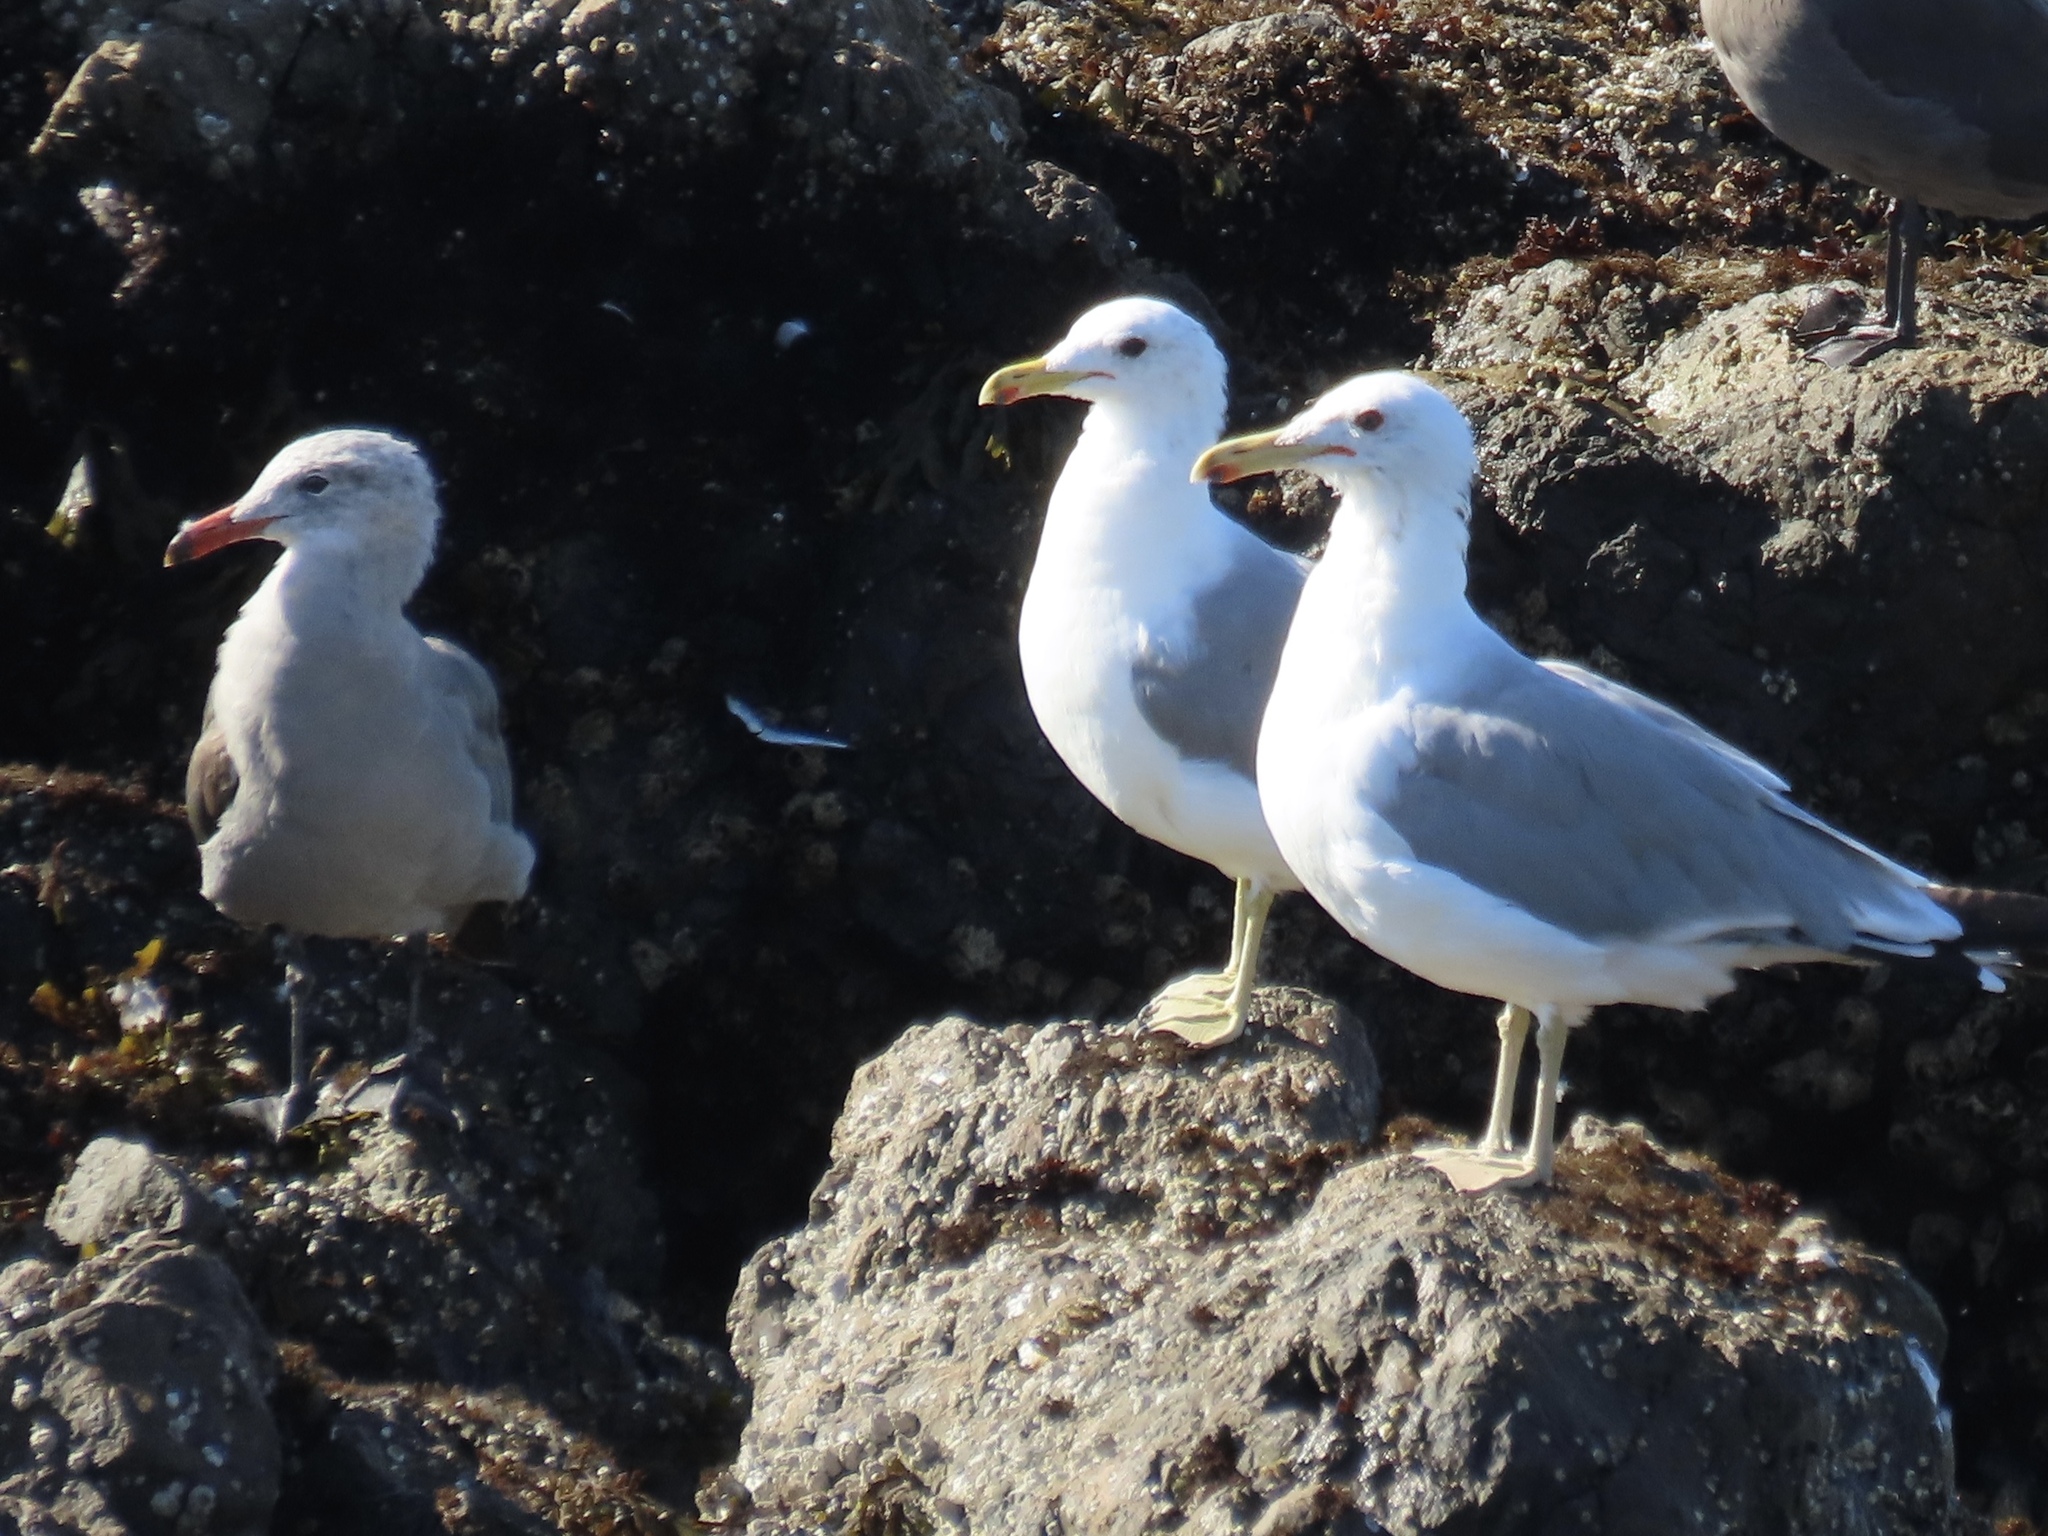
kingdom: Animalia
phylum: Chordata
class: Aves
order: Charadriiformes
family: Laridae
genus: Larus
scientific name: Larus heermanni
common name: Heermann's gull
